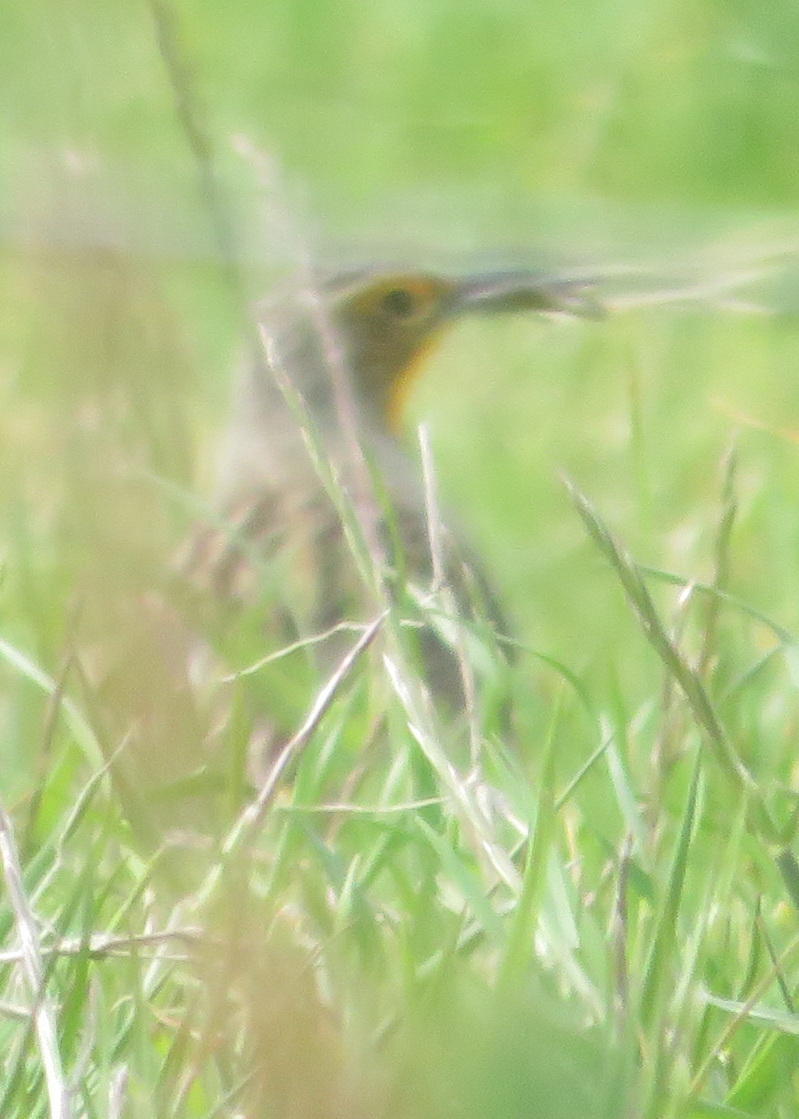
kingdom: Animalia
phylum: Chordata
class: Aves
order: Passeriformes
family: Motacillidae
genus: Macronyx
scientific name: Macronyx capensis
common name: Cape longclaw
